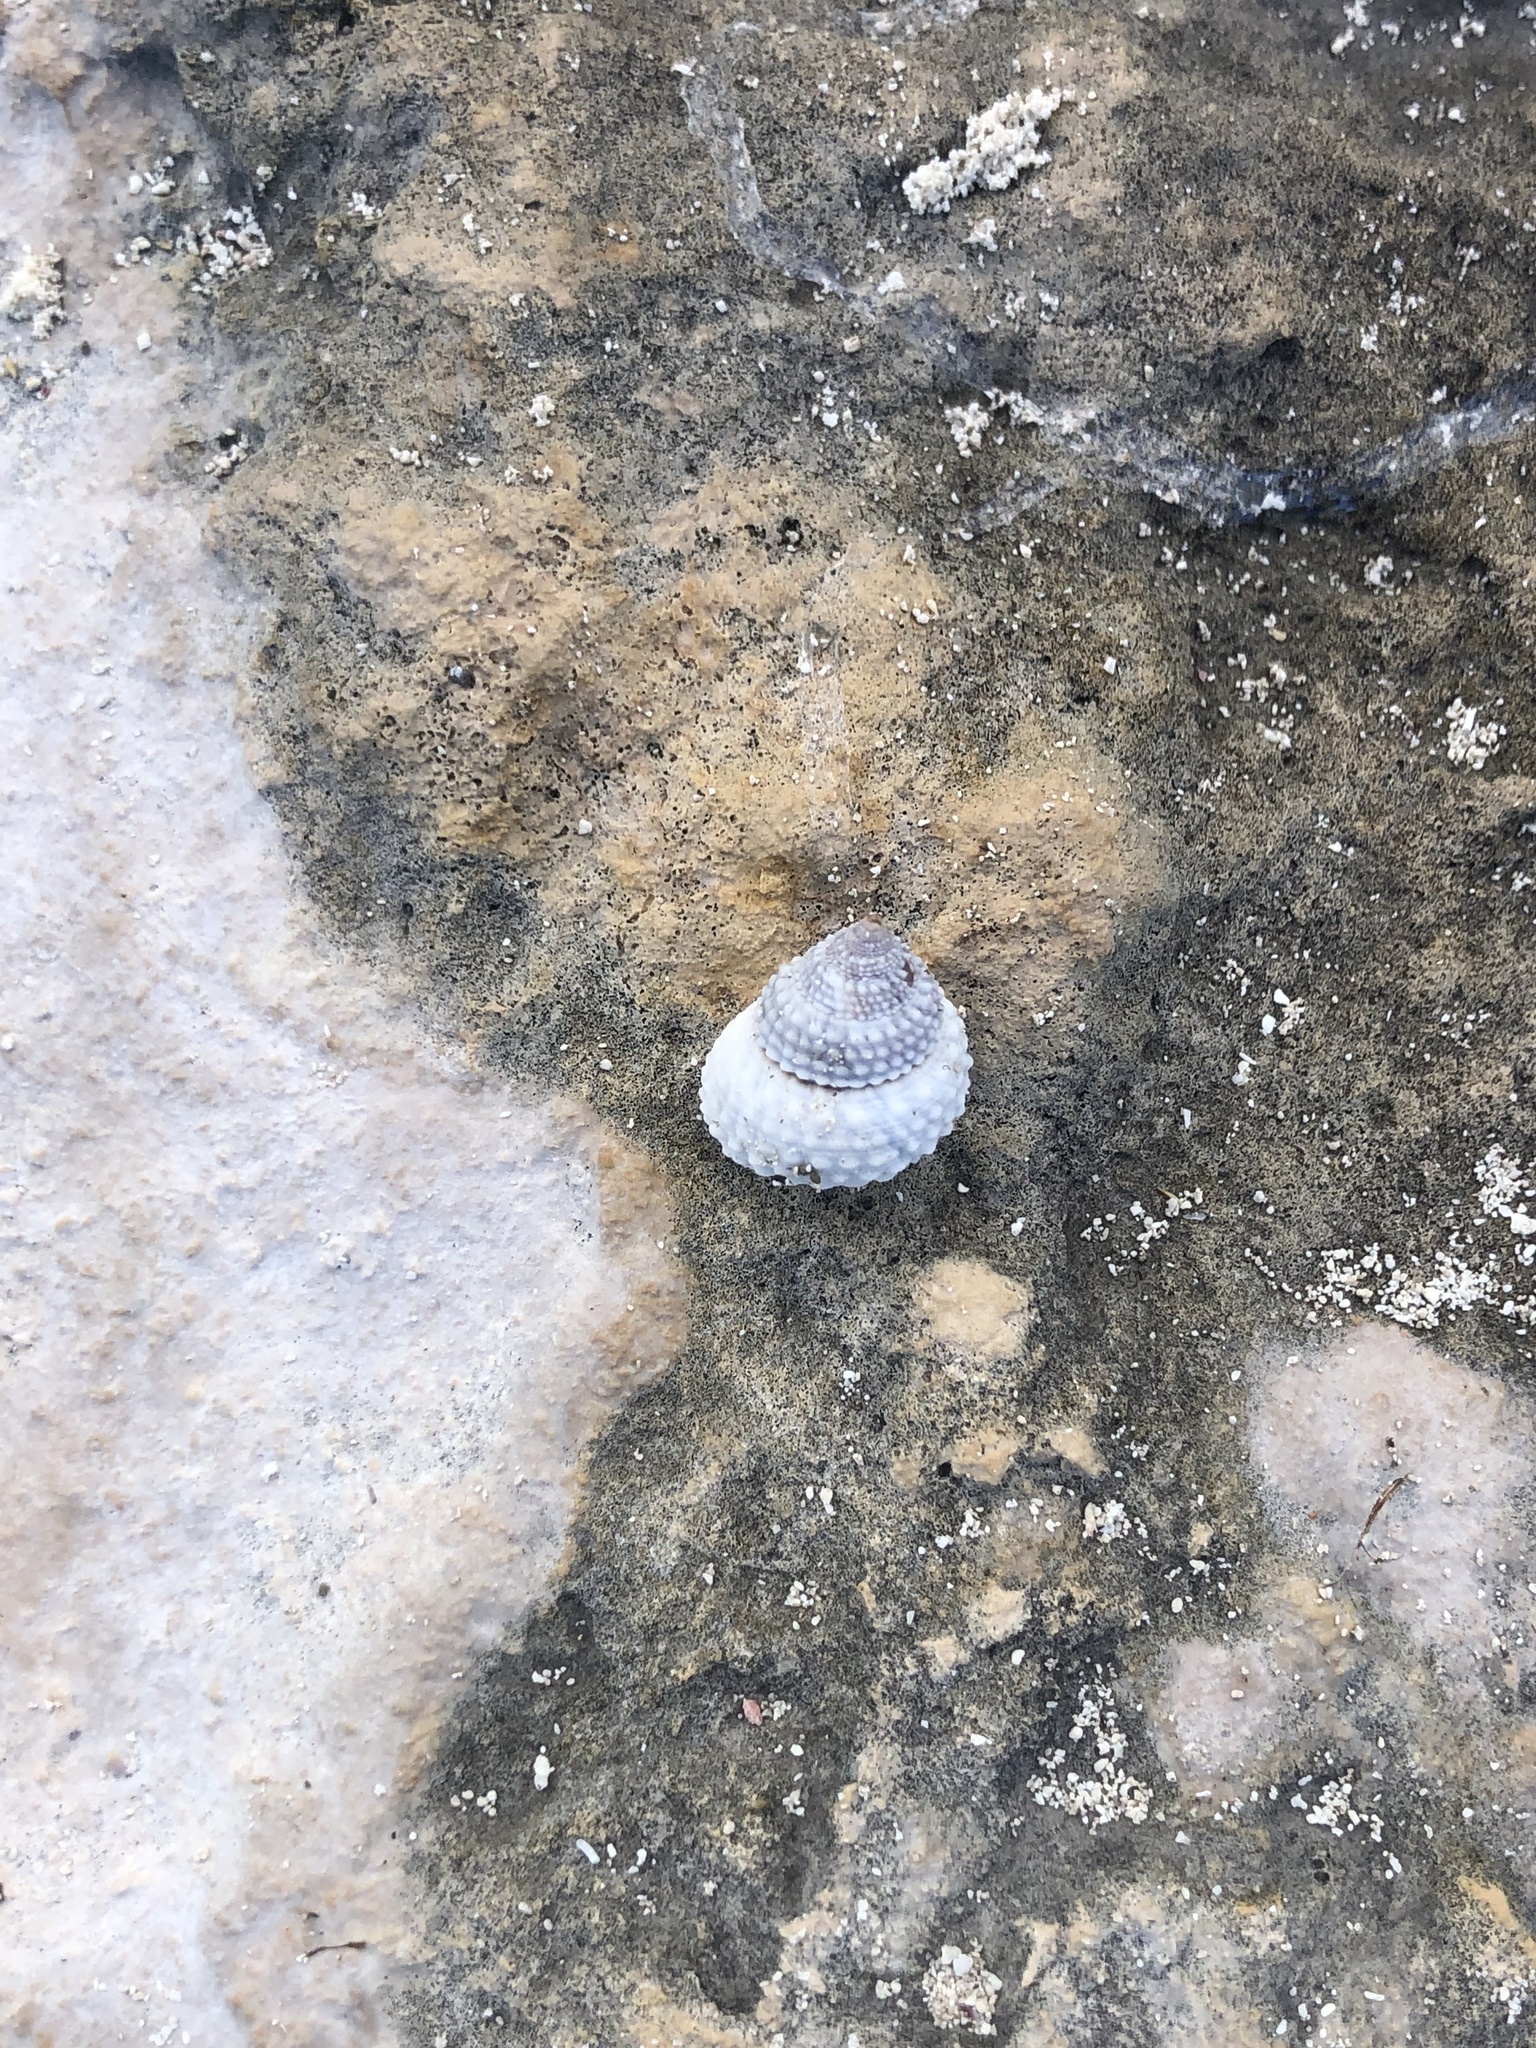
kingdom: Animalia
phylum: Mollusca
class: Gastropoda
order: Littorinimorpha
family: Littorinidae
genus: Cenchritis
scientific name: Cenchritis muricatus
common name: Beaded periwinkle
